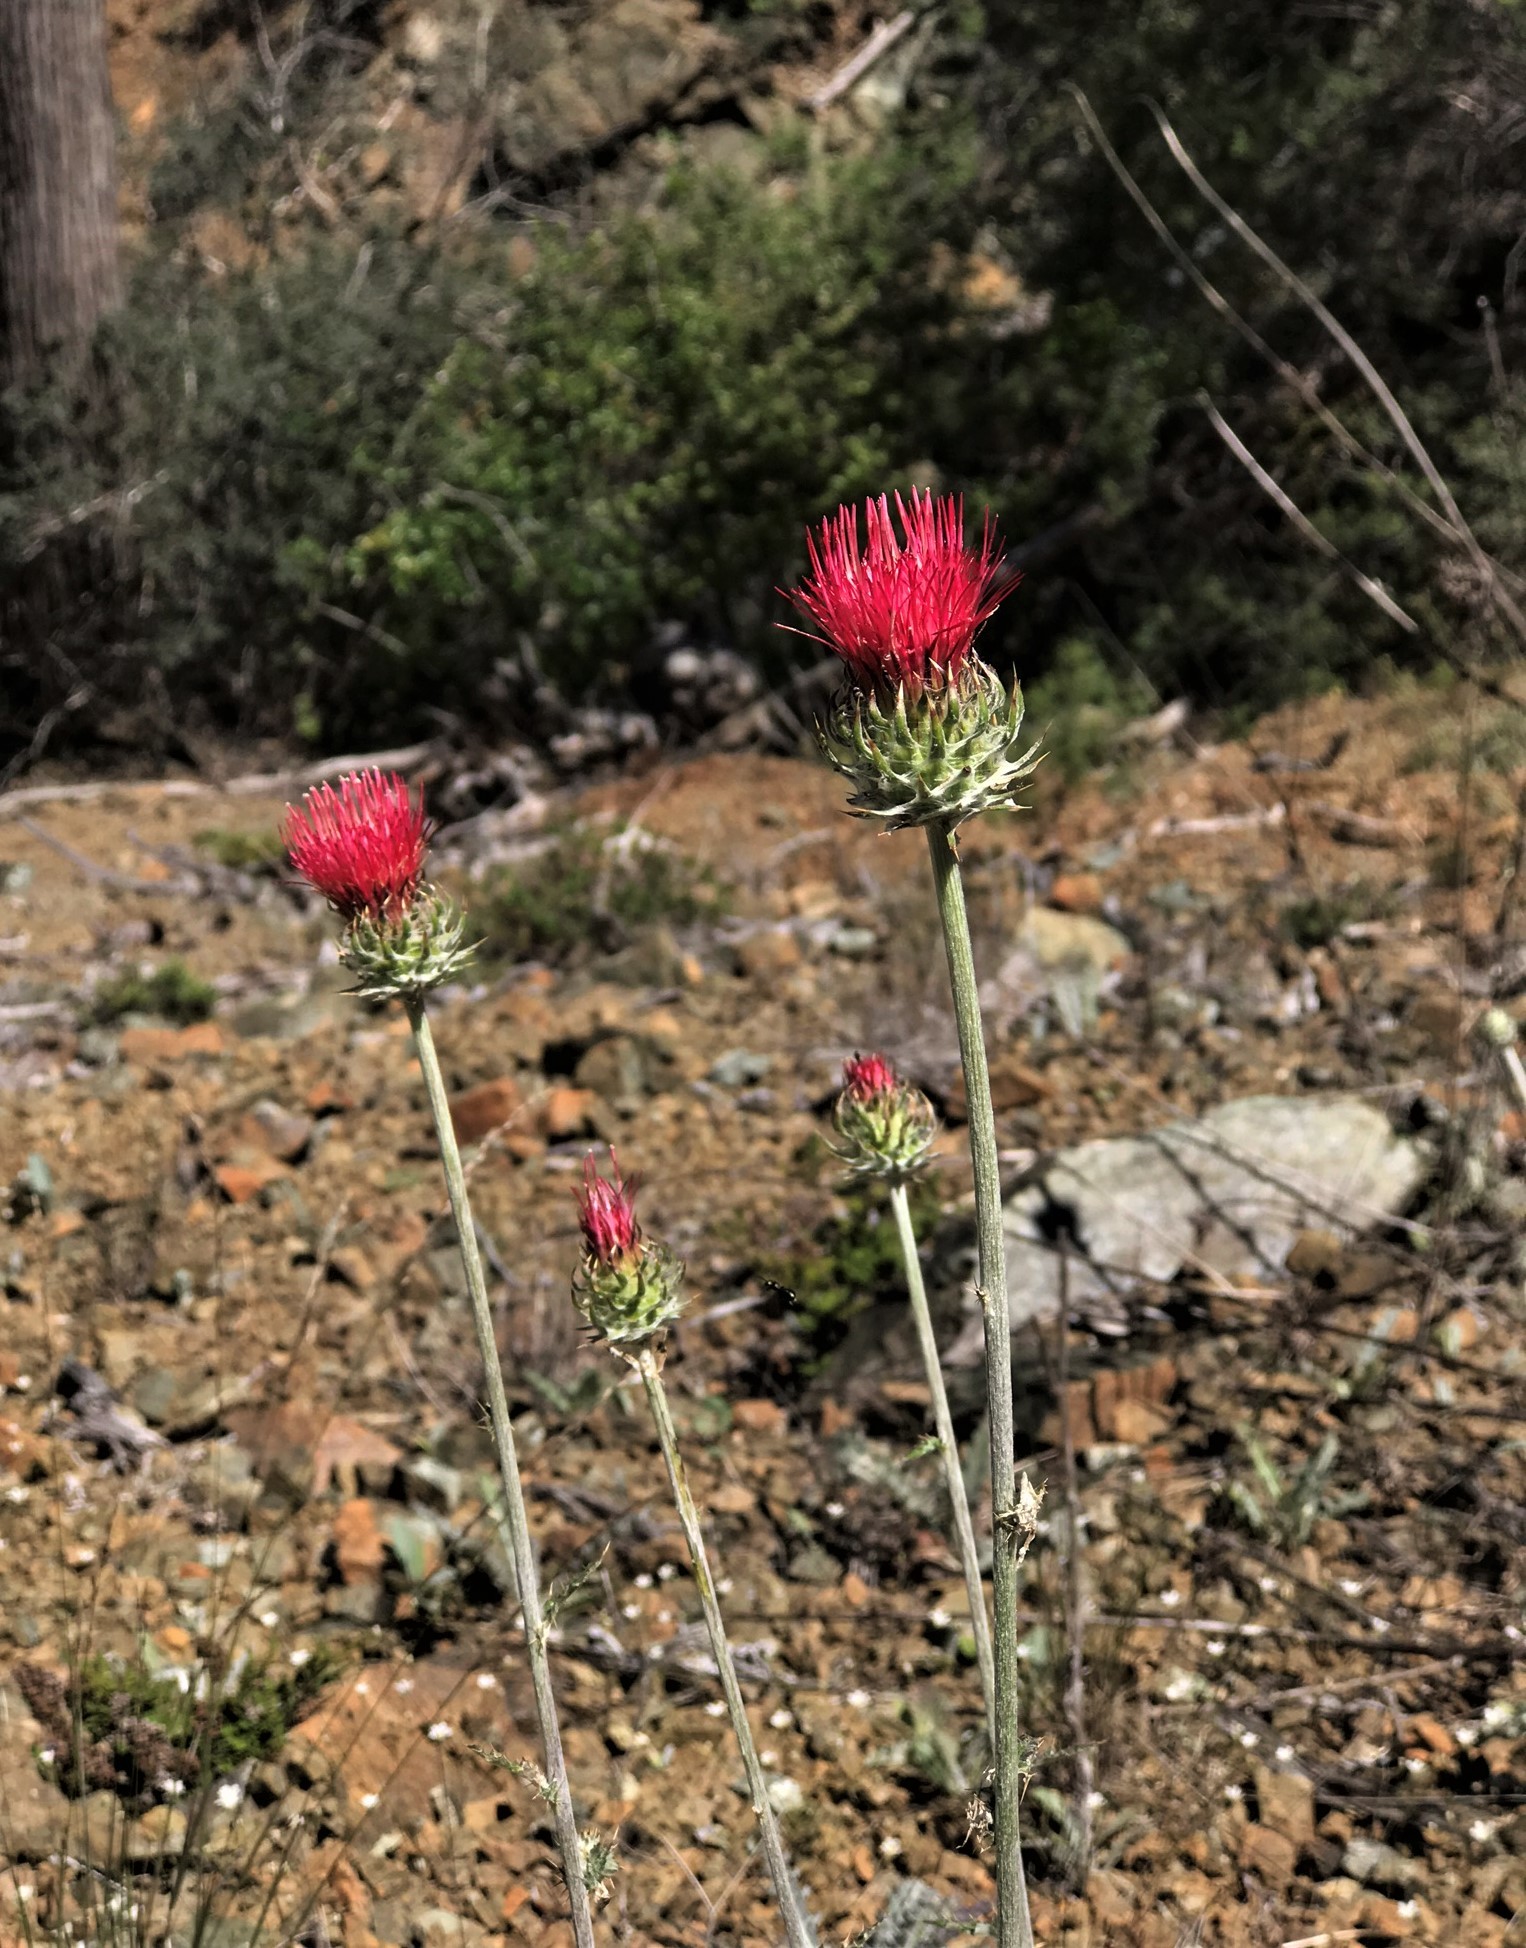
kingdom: Plantae
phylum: Tracheophyta
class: Magnoliopsida
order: Asterales
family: Asteraceae
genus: Cirsium
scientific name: Cirsium occidentale
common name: Western thistle
